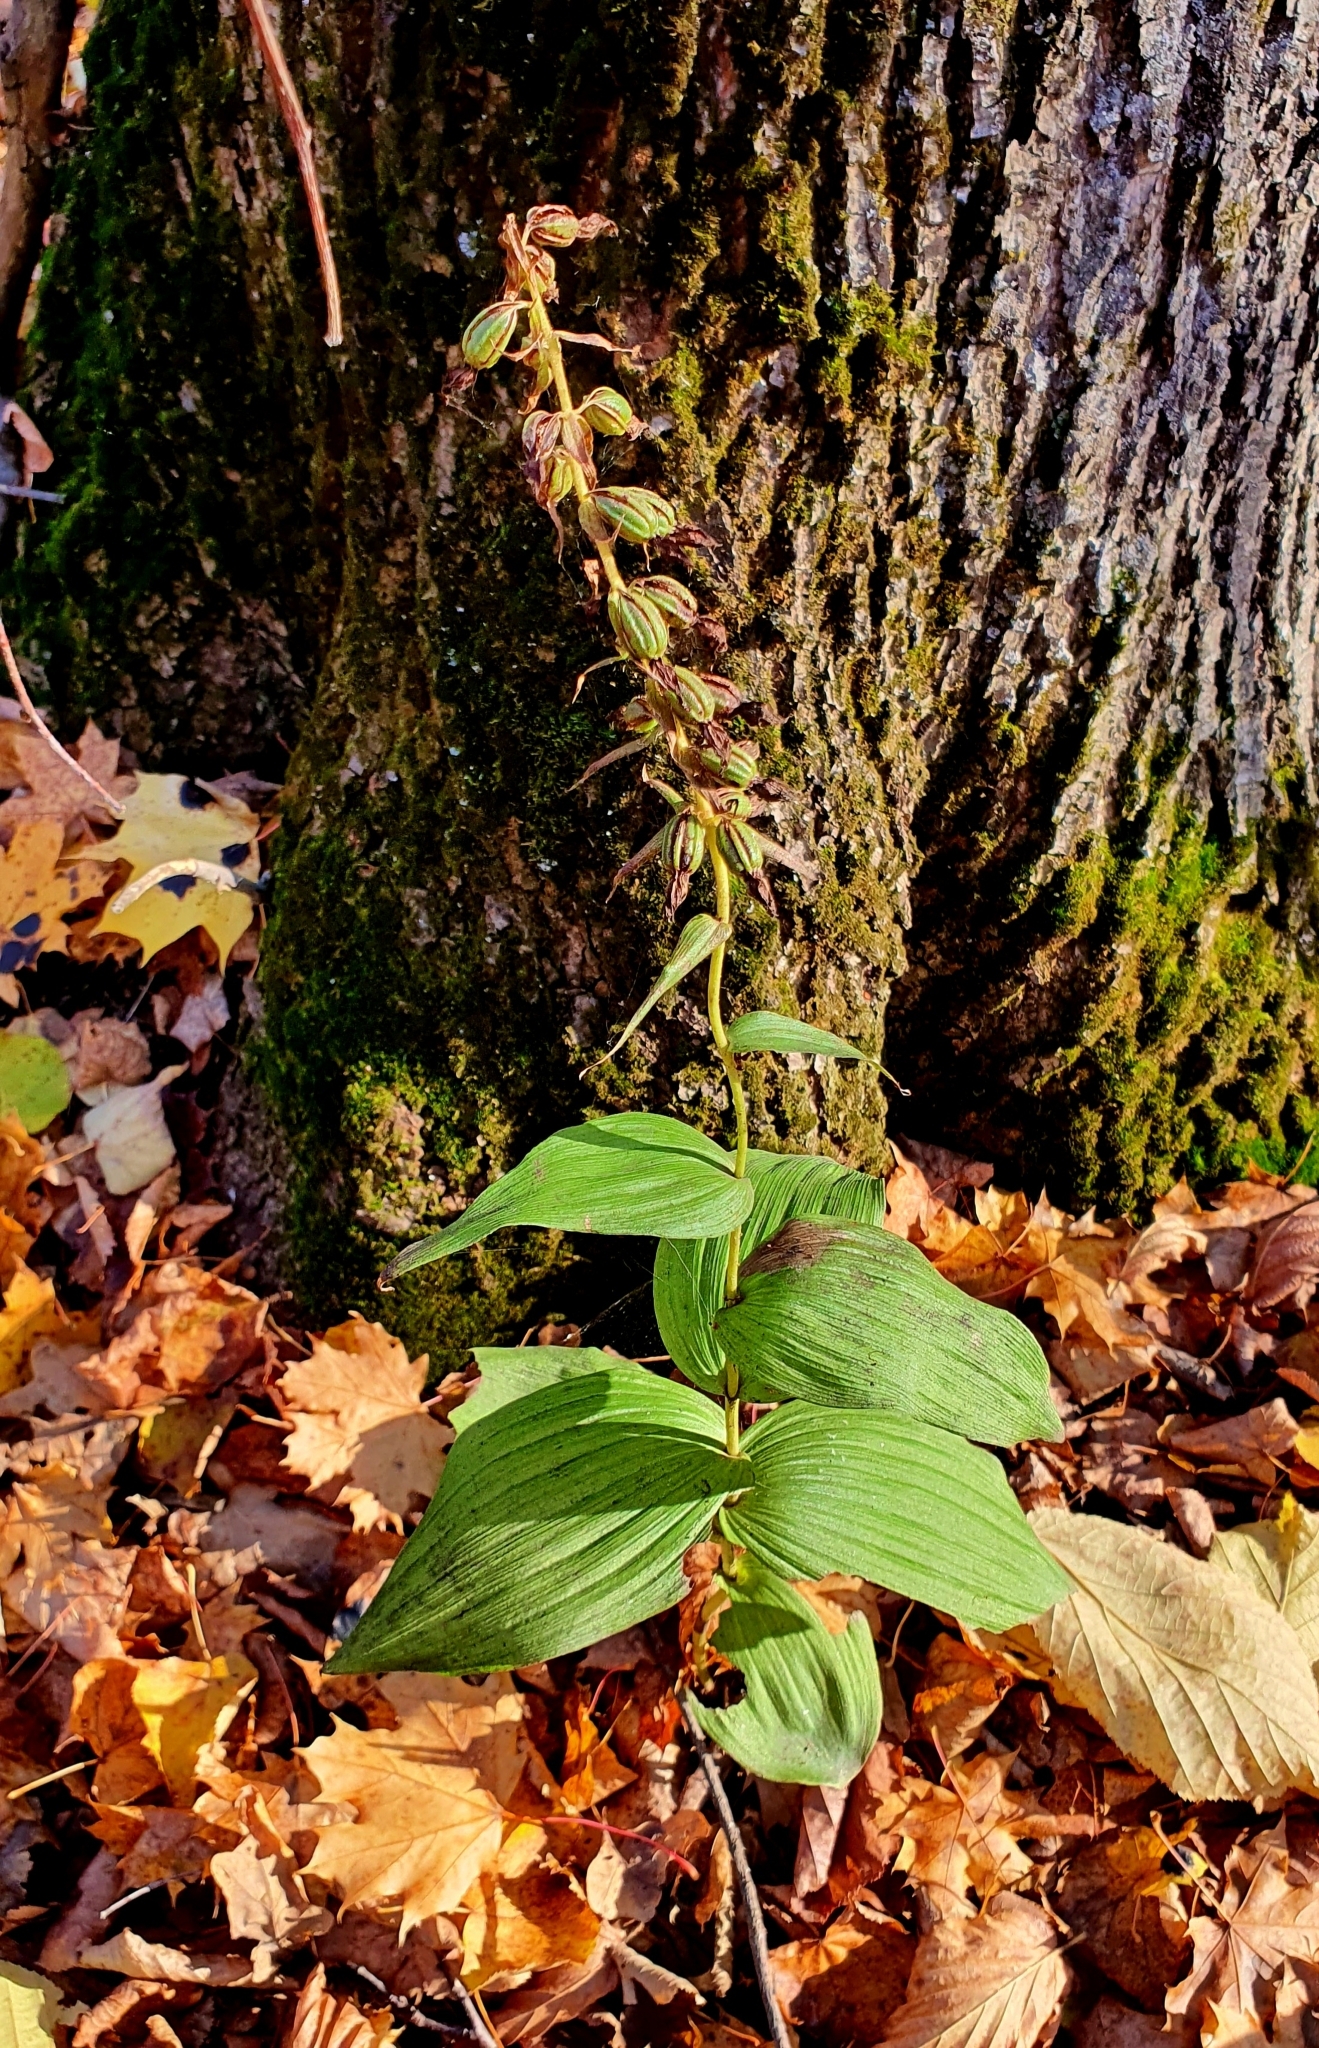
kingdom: Plantae
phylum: Tracheophyta
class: Liliopsida
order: Asparagales
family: Orchidaceae
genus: Epipactis
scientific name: Epipactis helleborine
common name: Broad-leaved helleborine
